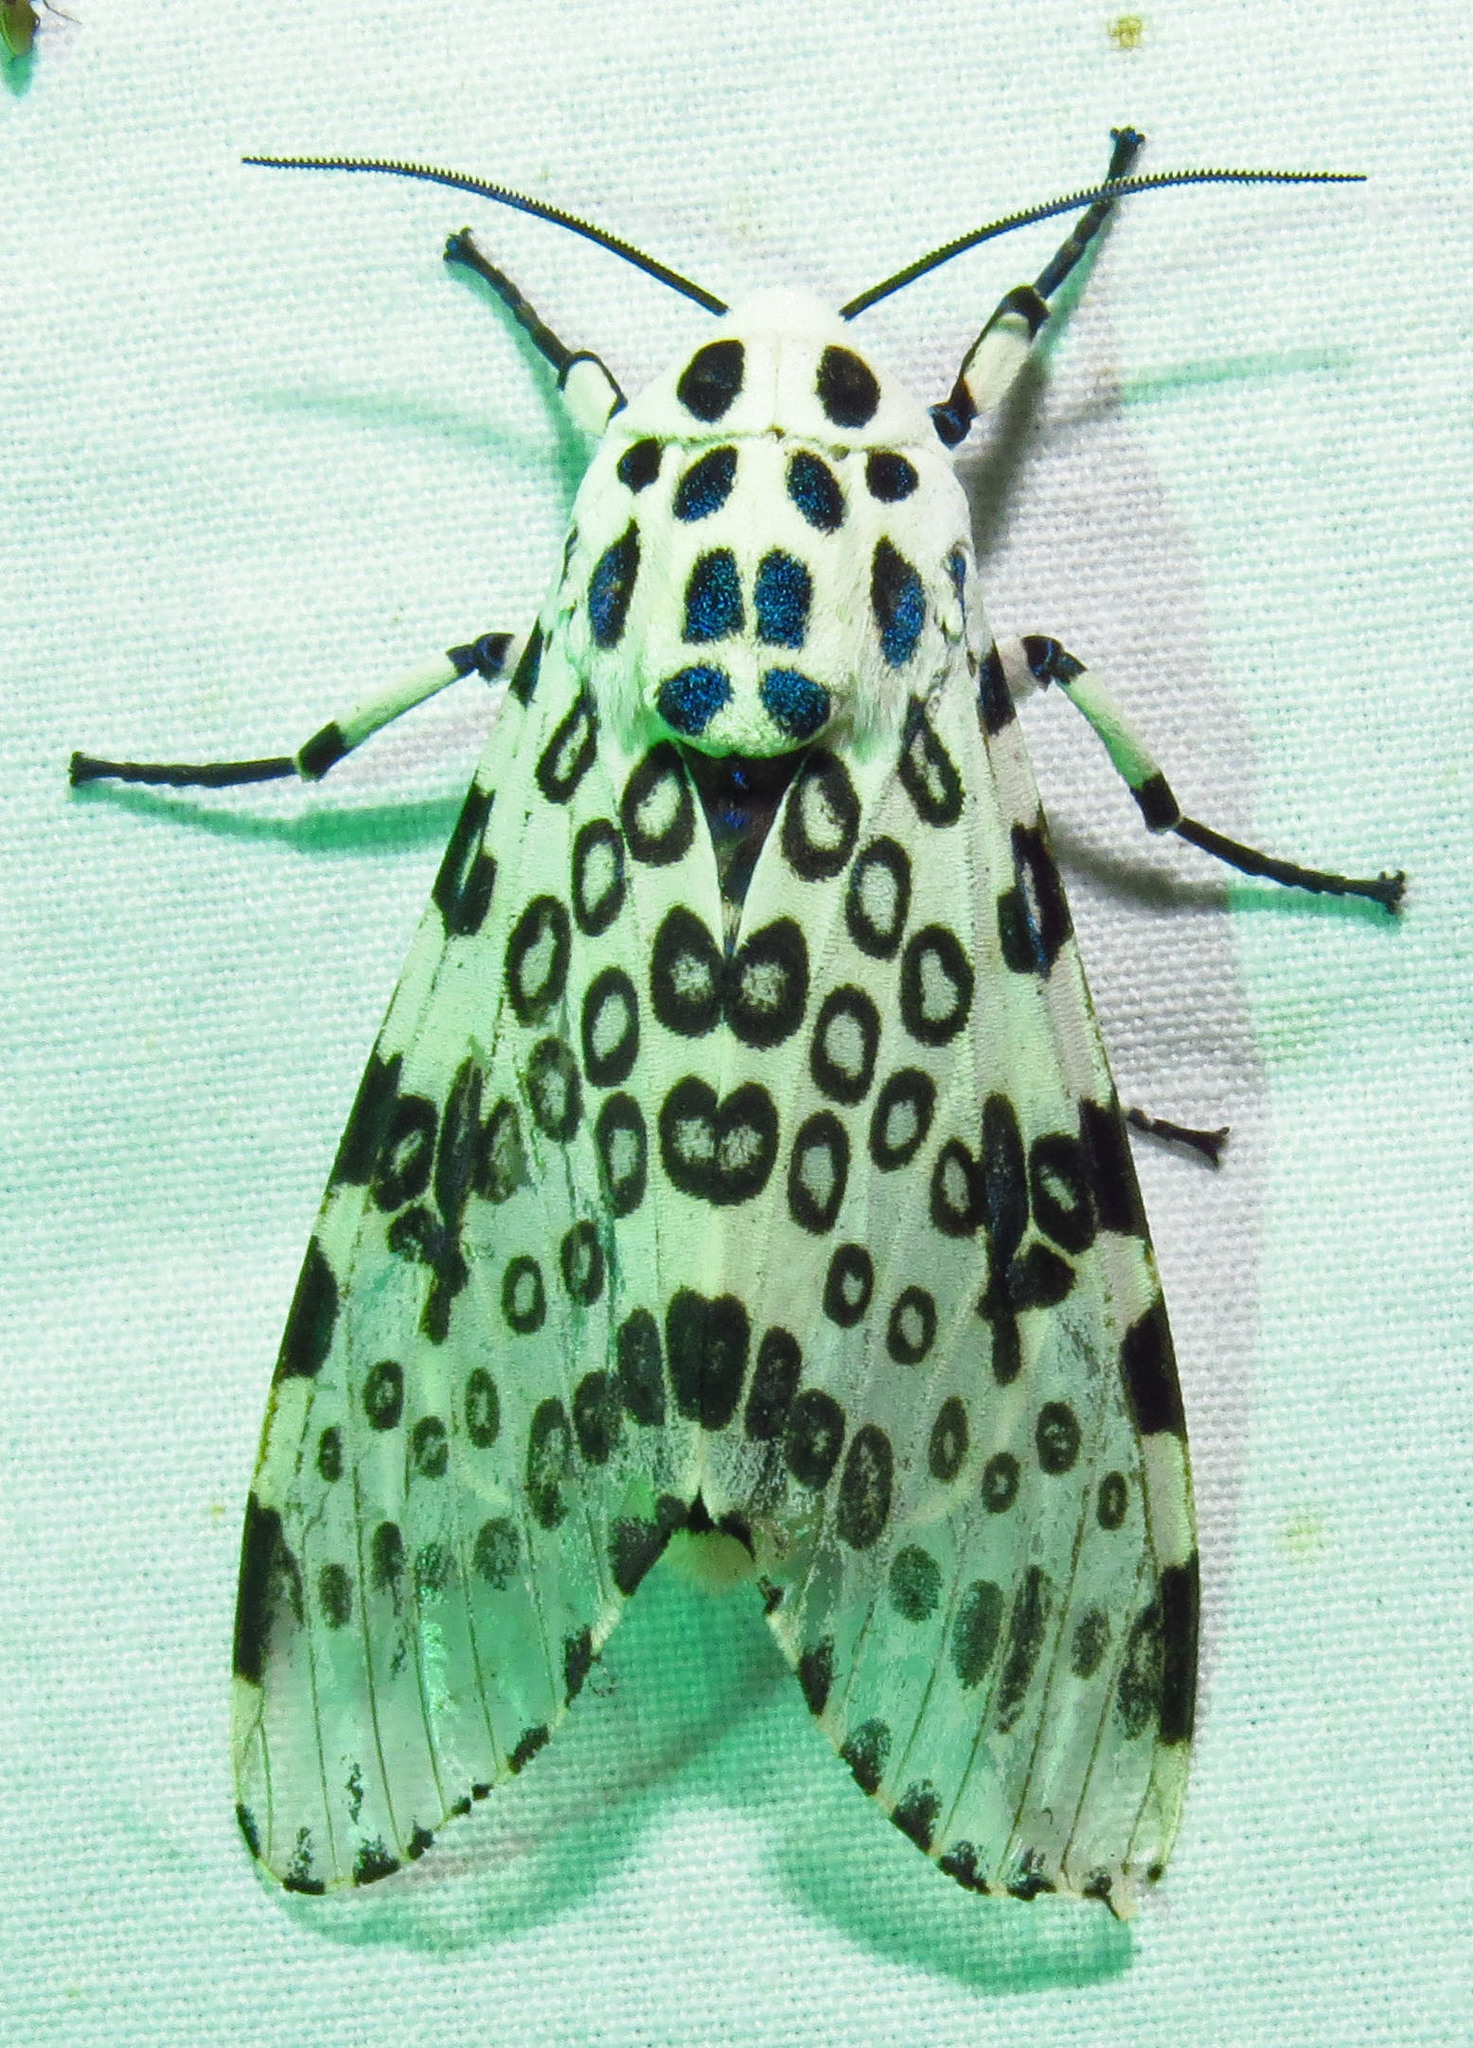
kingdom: Animalia
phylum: Arthropoda
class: Insecta
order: Lepidoptera
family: Erebidae
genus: Hypercompe
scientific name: Hypercompe scribonia
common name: Giant leopard moth
